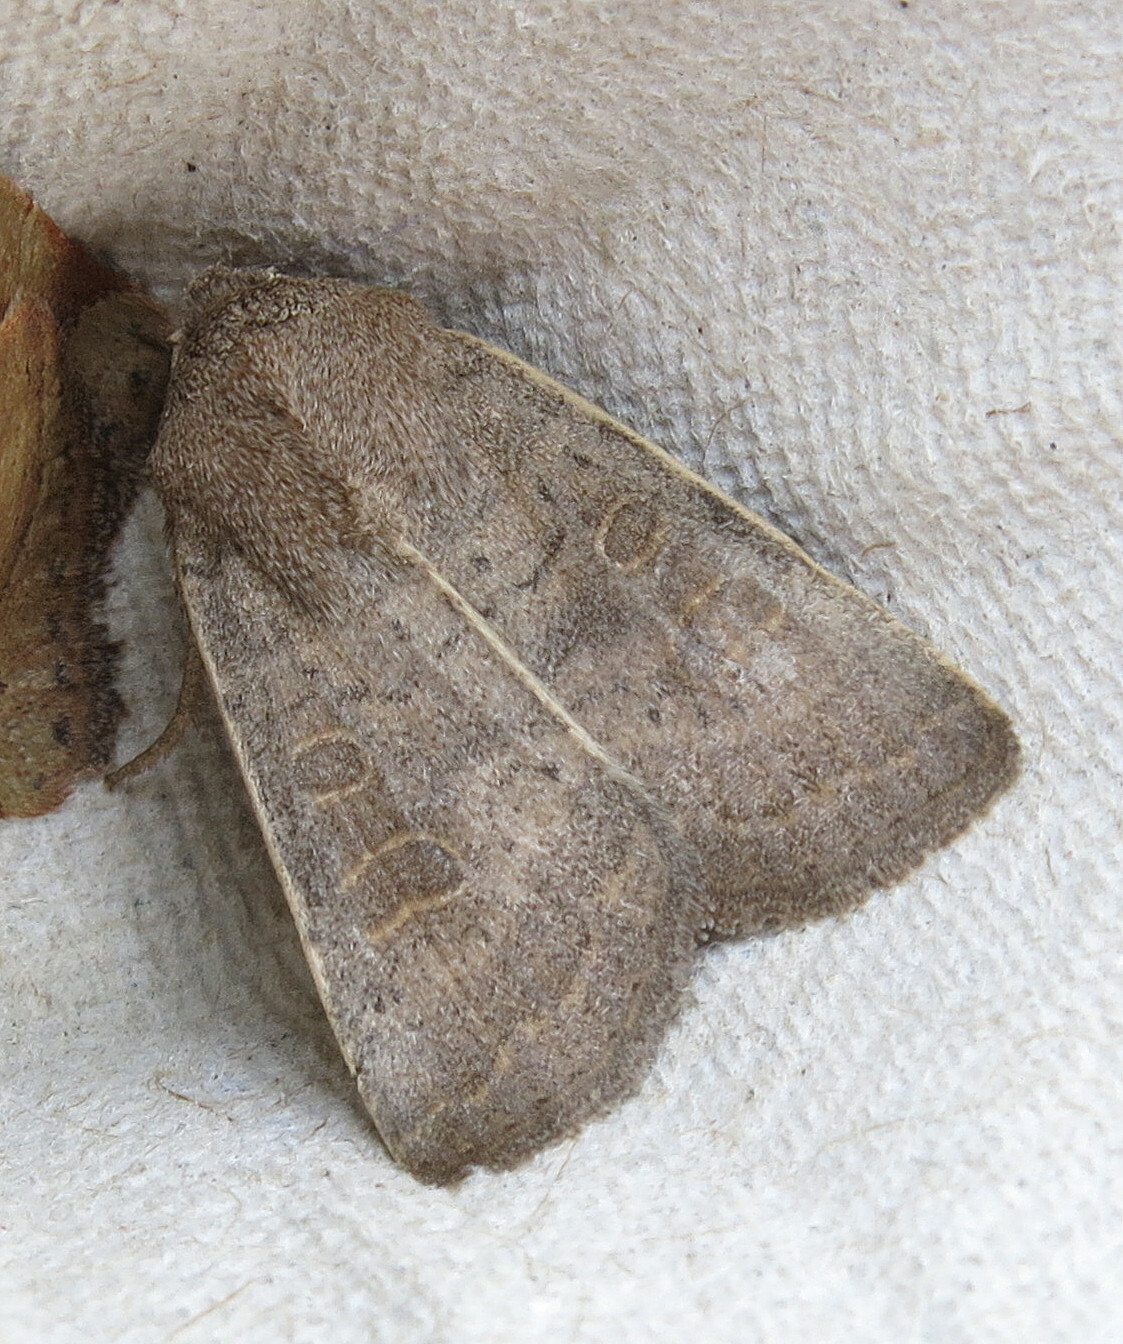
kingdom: Animalia
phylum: Arthropoda
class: Insecta
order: Lepidoptera
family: Noctuidae
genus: Hoplodrina
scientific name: Hoplodrina ambigua
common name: Vine's rustic
